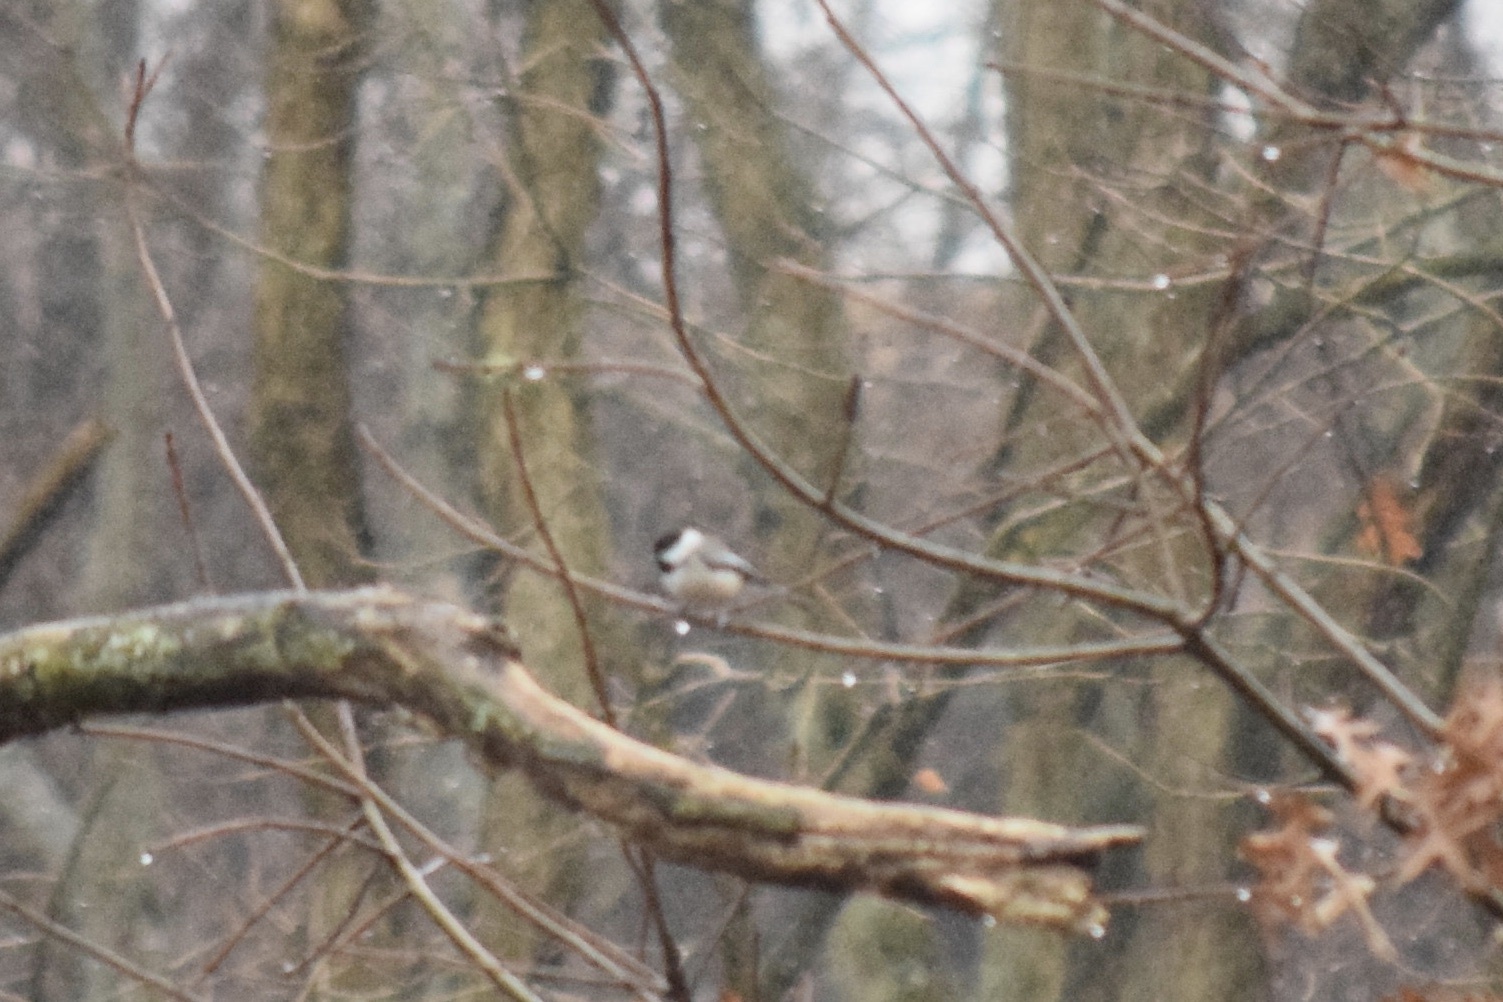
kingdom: Animalia
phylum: Chordata
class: Aves
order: Passeriformes
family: Paridae
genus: Poecile
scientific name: Poecile atricapillus
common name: Black-capped chickadee
